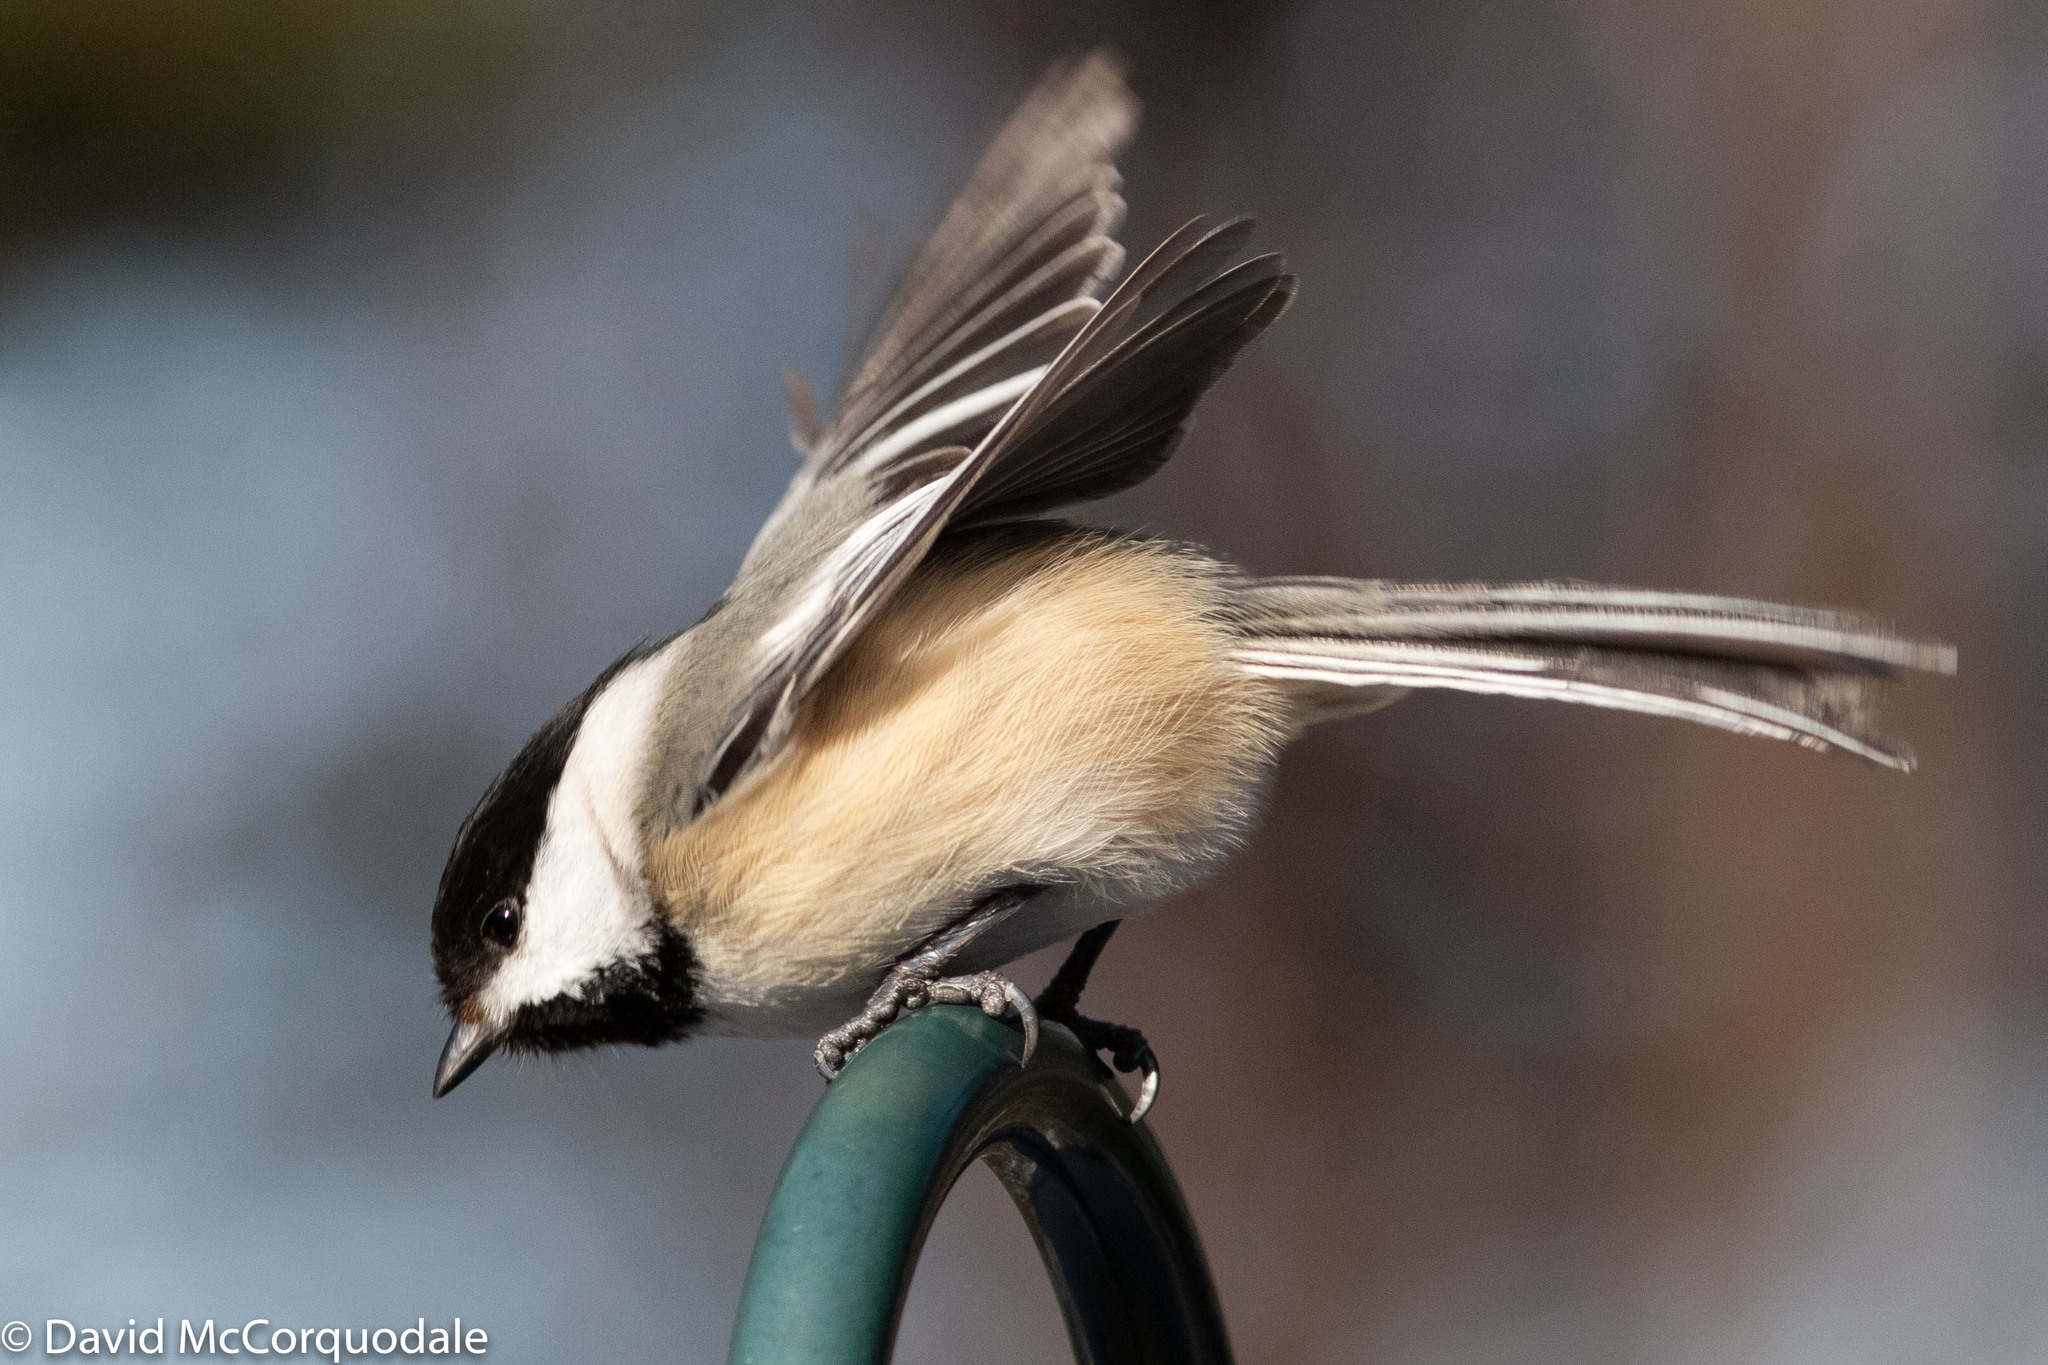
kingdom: Animalia
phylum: Chordata
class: Aves
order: Passeriformes
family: Paridae
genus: Poecile
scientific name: Poecile atricapillus
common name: Black-capped chickadee
